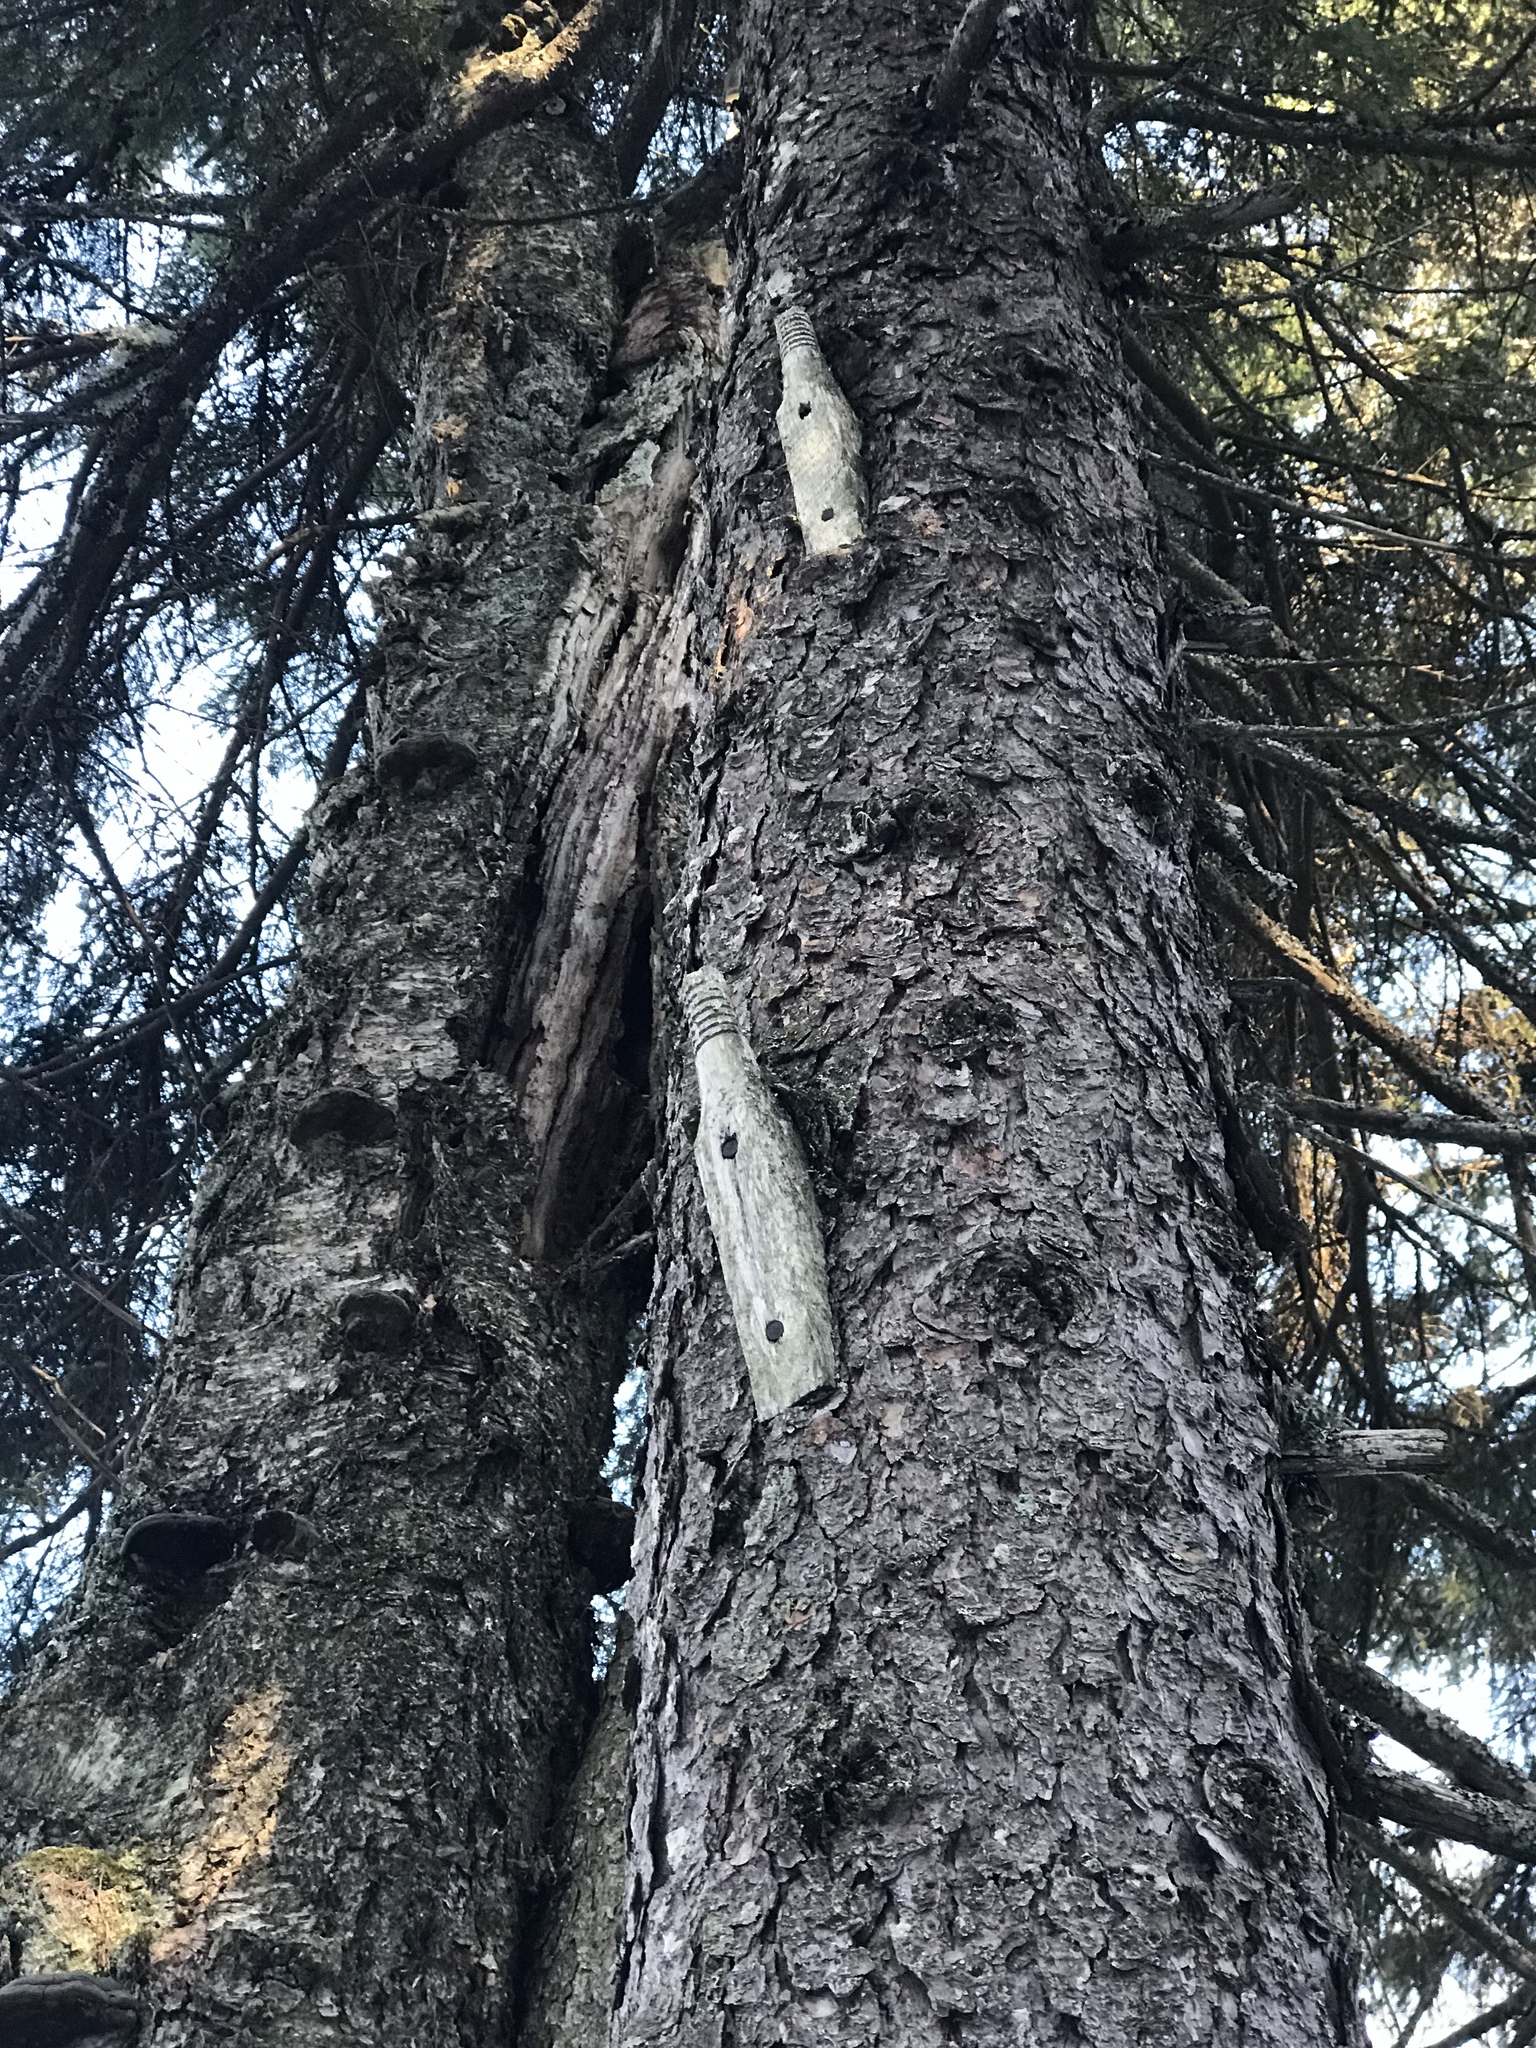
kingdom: Plantae
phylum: Tracheophyta
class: Pinopsida
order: Pinales
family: Pinaceae
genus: Picea
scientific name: Picea rubens
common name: Red spruce
